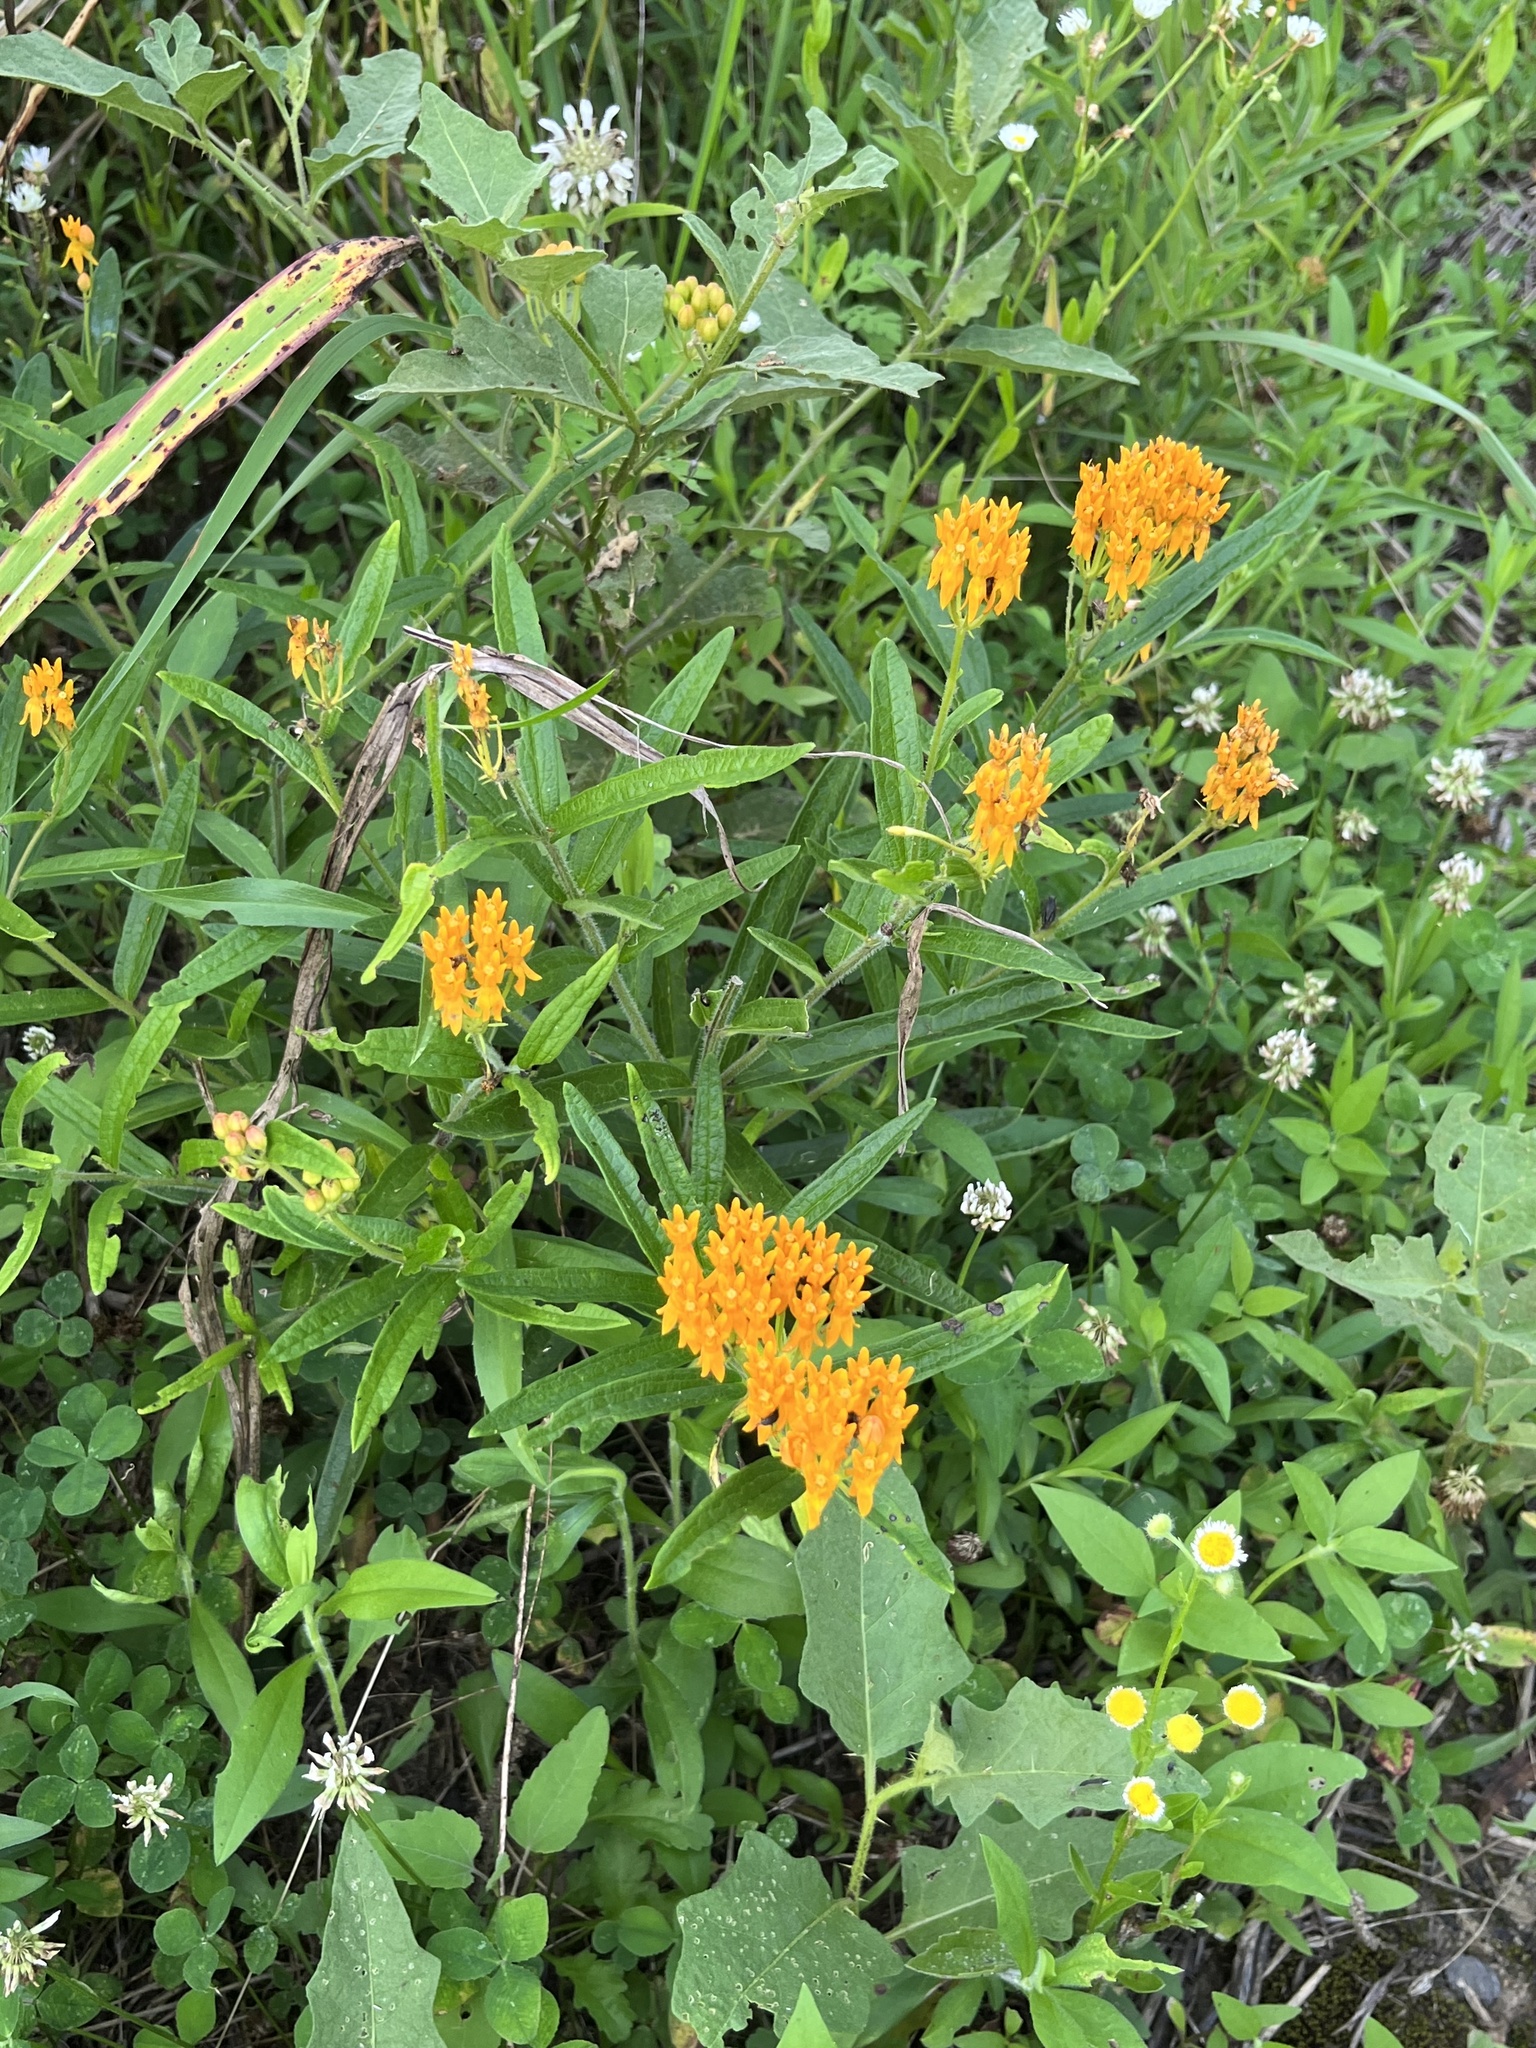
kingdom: Plantae
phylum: Tracheophyta
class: Magnoliopsida
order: Gentianales
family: Apocynaceae
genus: Asclepias
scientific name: Asclepias tuberosa
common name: Butterfly milkweed
